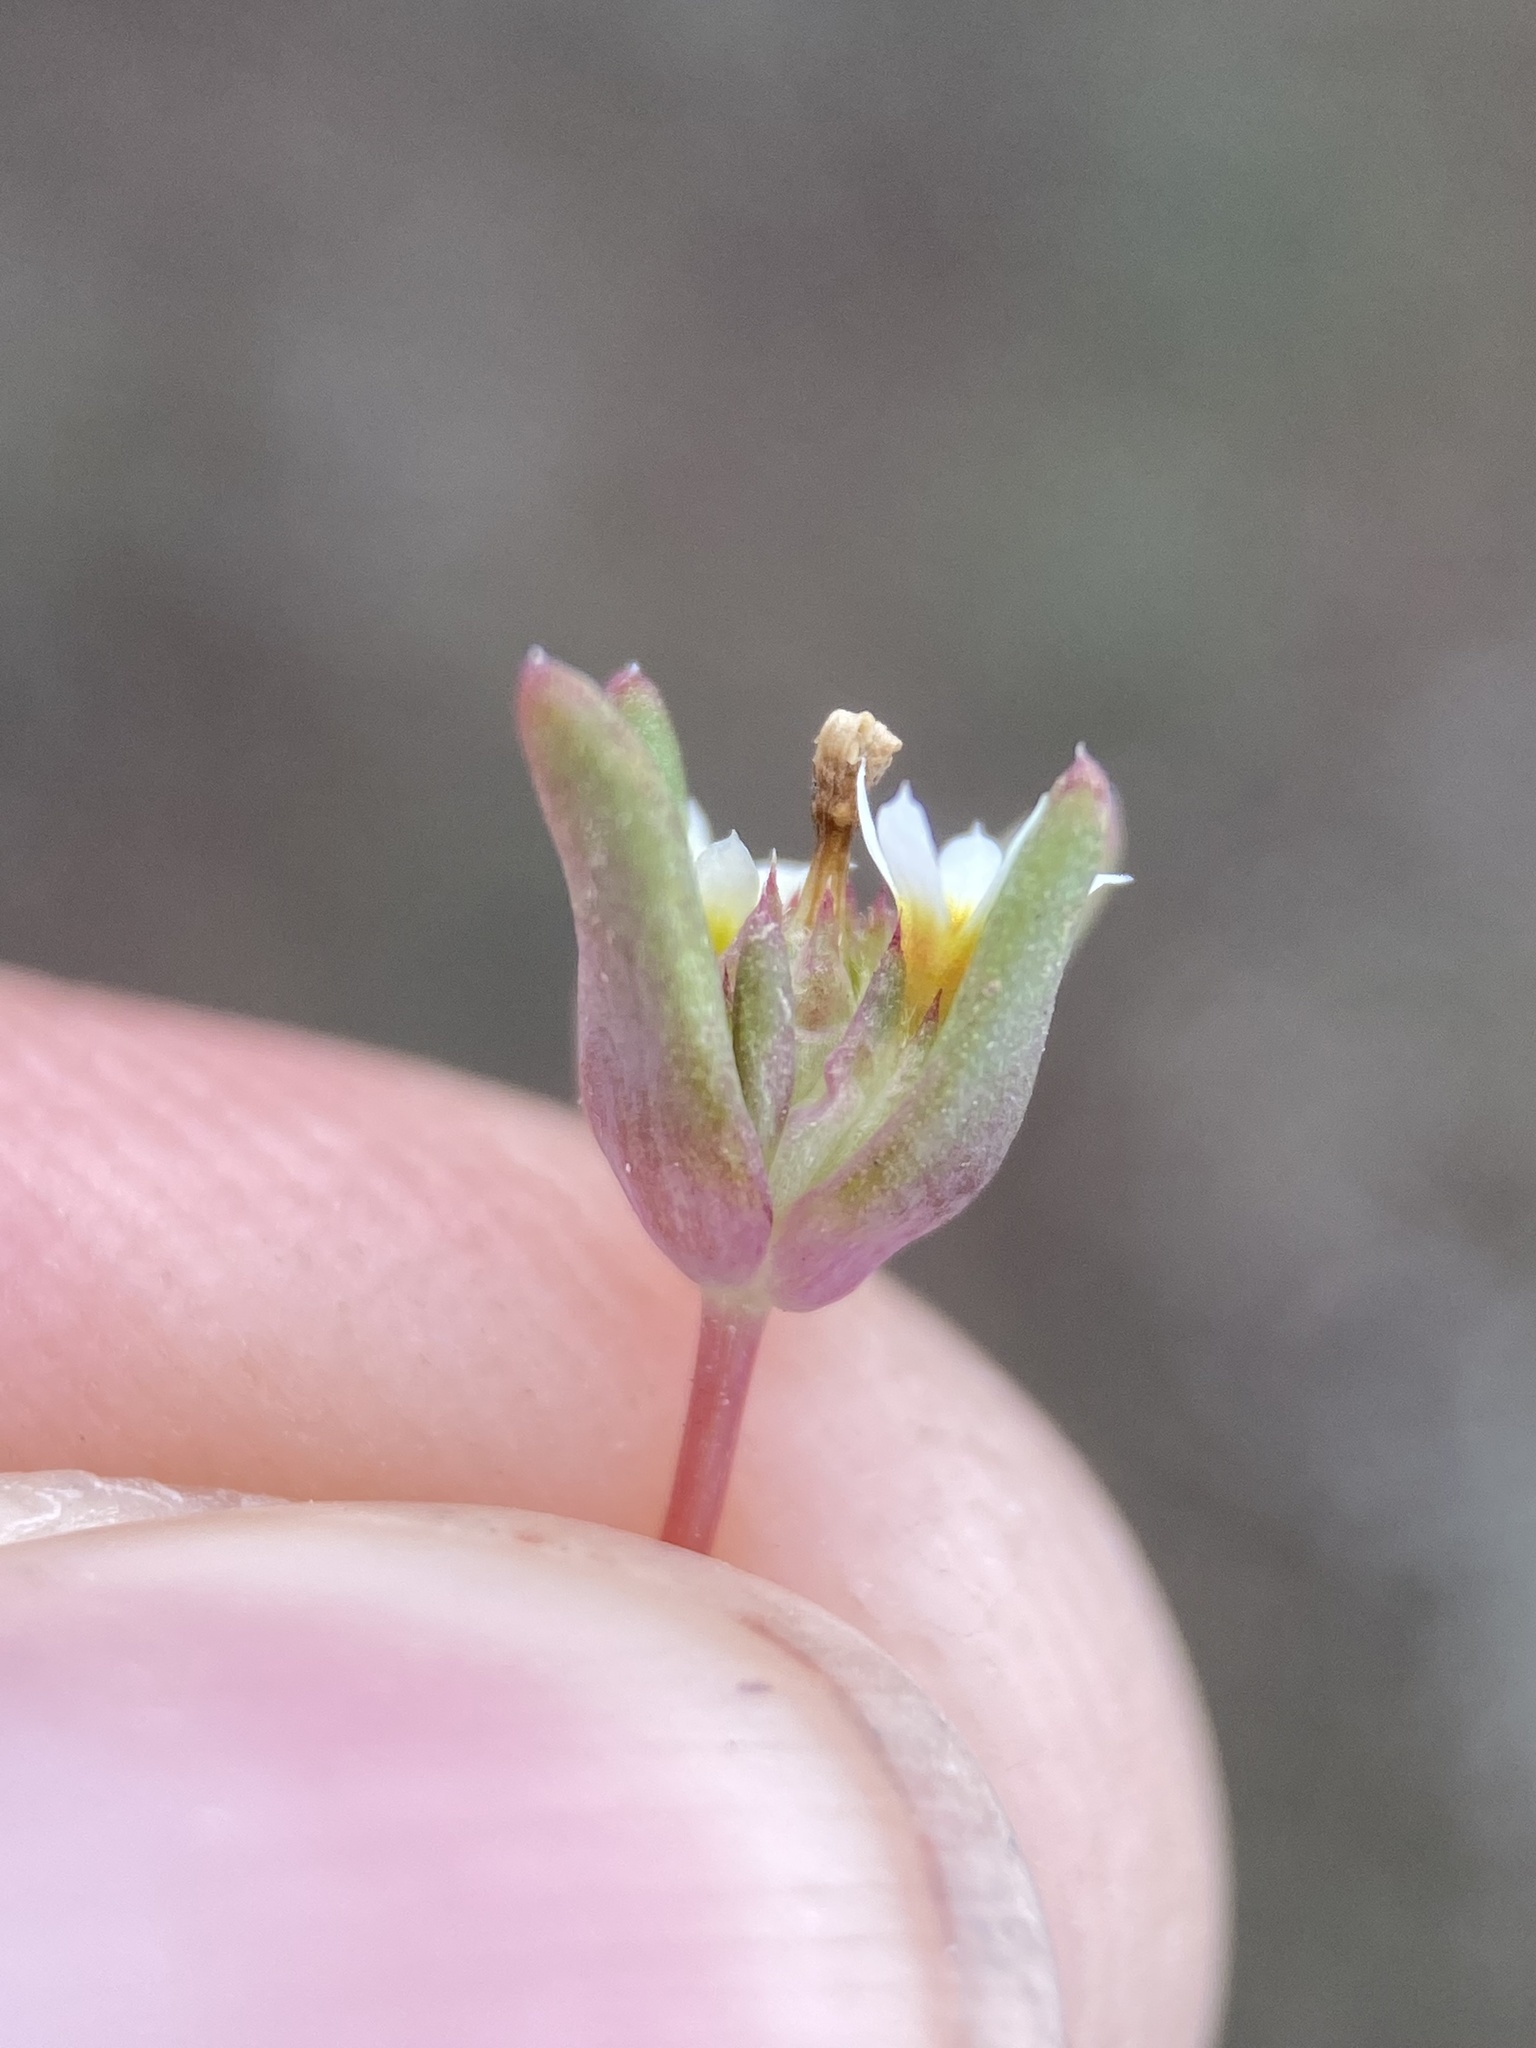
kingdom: Plantae
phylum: Tracheophyta
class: Magnoliopsida
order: Ericales
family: Polemoniaceae
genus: Gymnosteris
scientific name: Gymnosteris parvula
